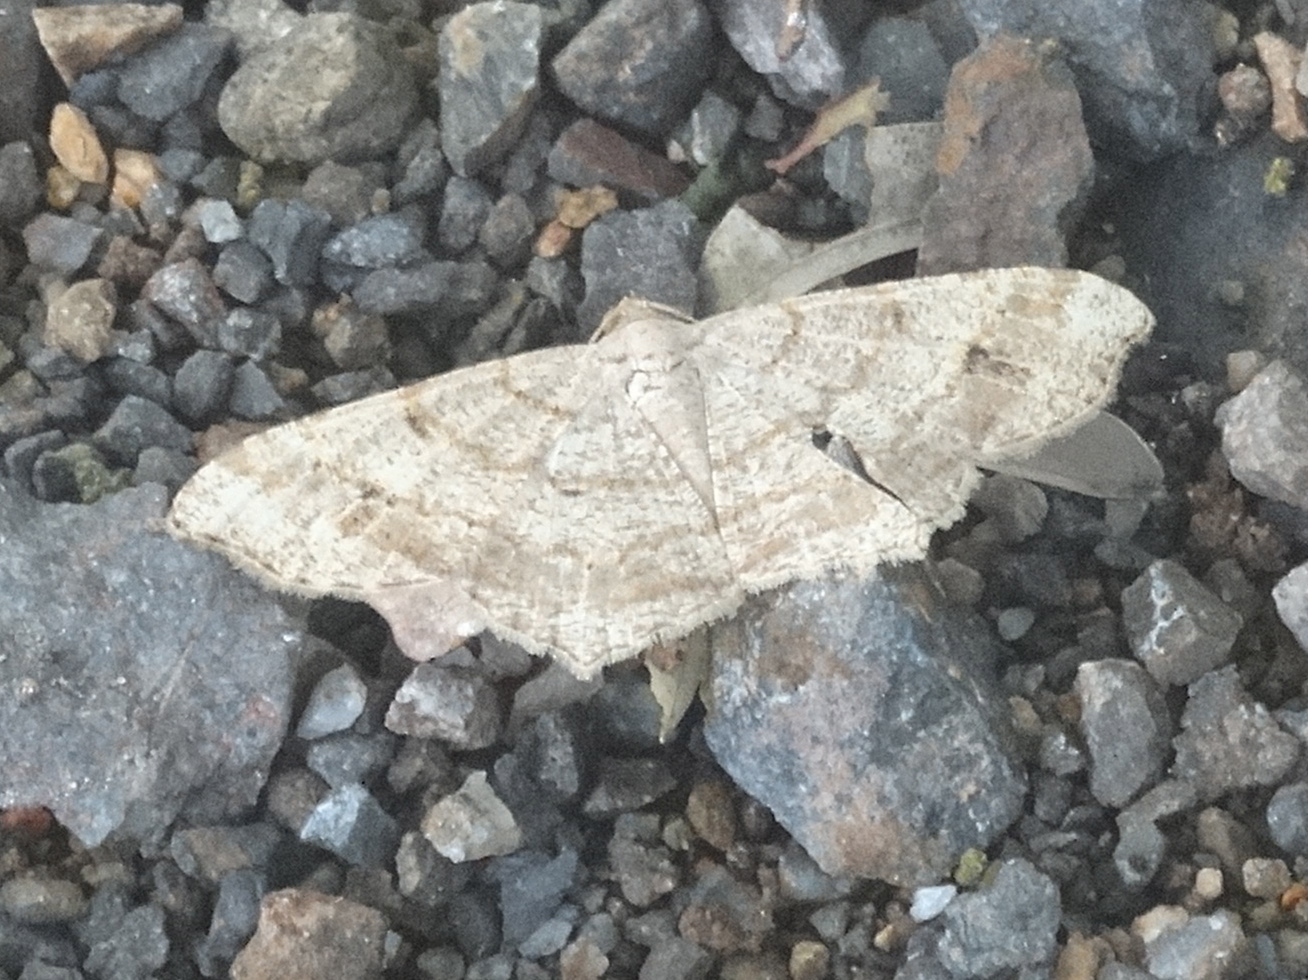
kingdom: Animalia
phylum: Arthropoda
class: Insecta
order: Lepidoptera
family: Geometridae
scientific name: Geometridae
